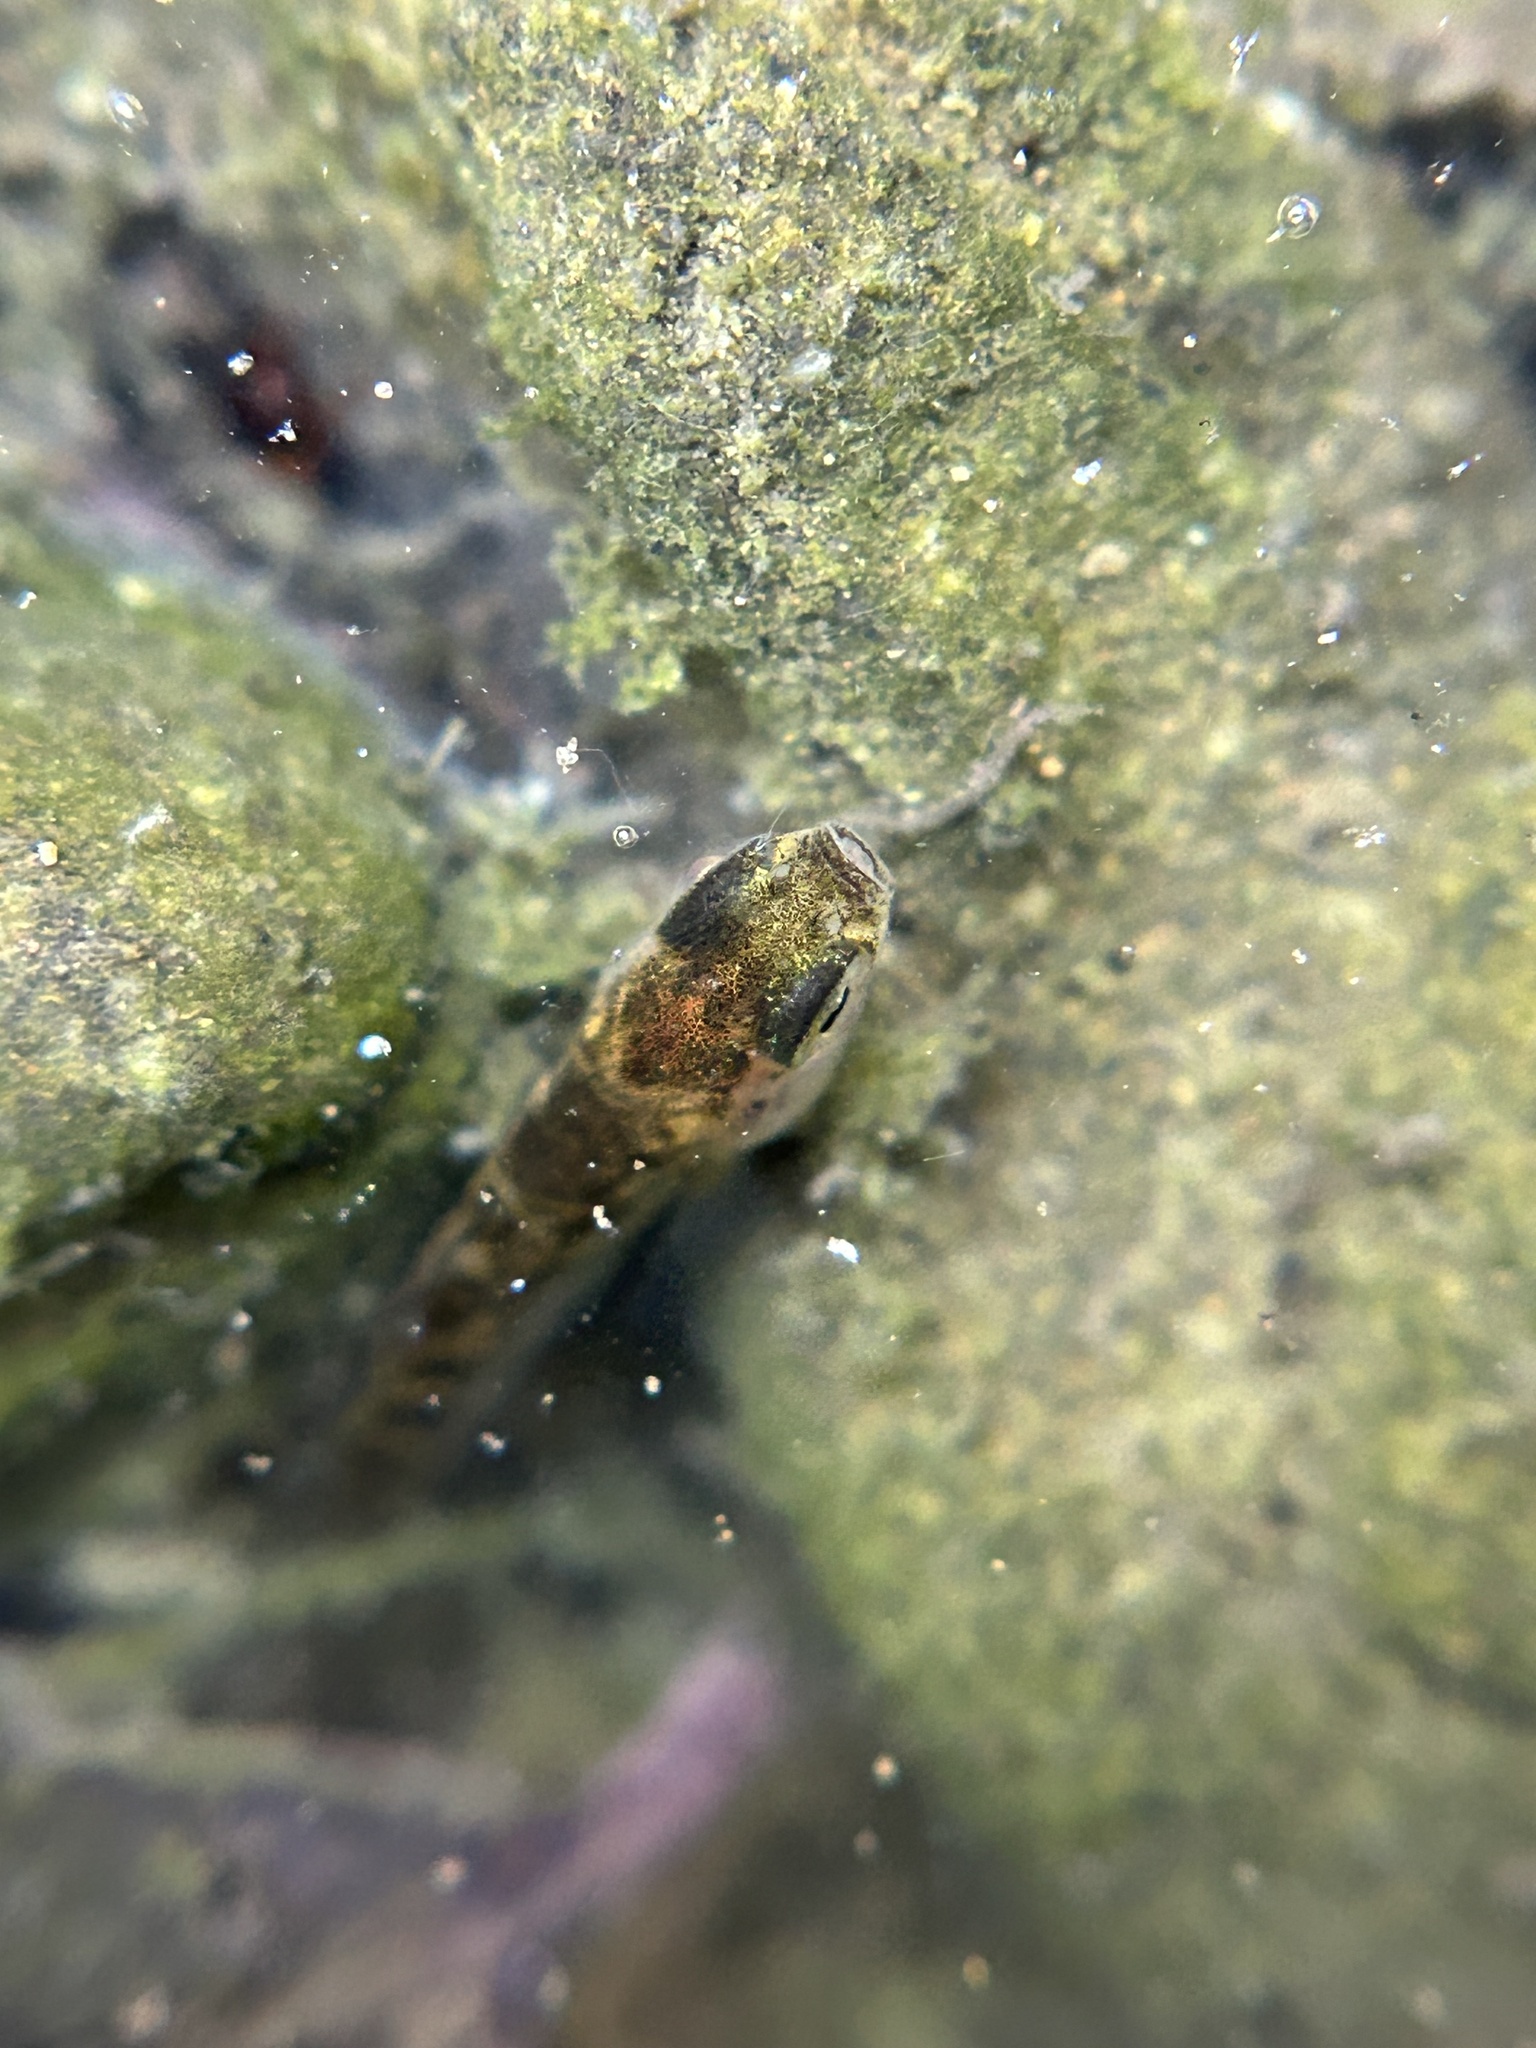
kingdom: Animalia
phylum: Chordata
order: Gasterosteiformes
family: Gasterosteidae
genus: Gasterosteus
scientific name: Gasterosteus aculeatus
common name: Three-spined stickleback
